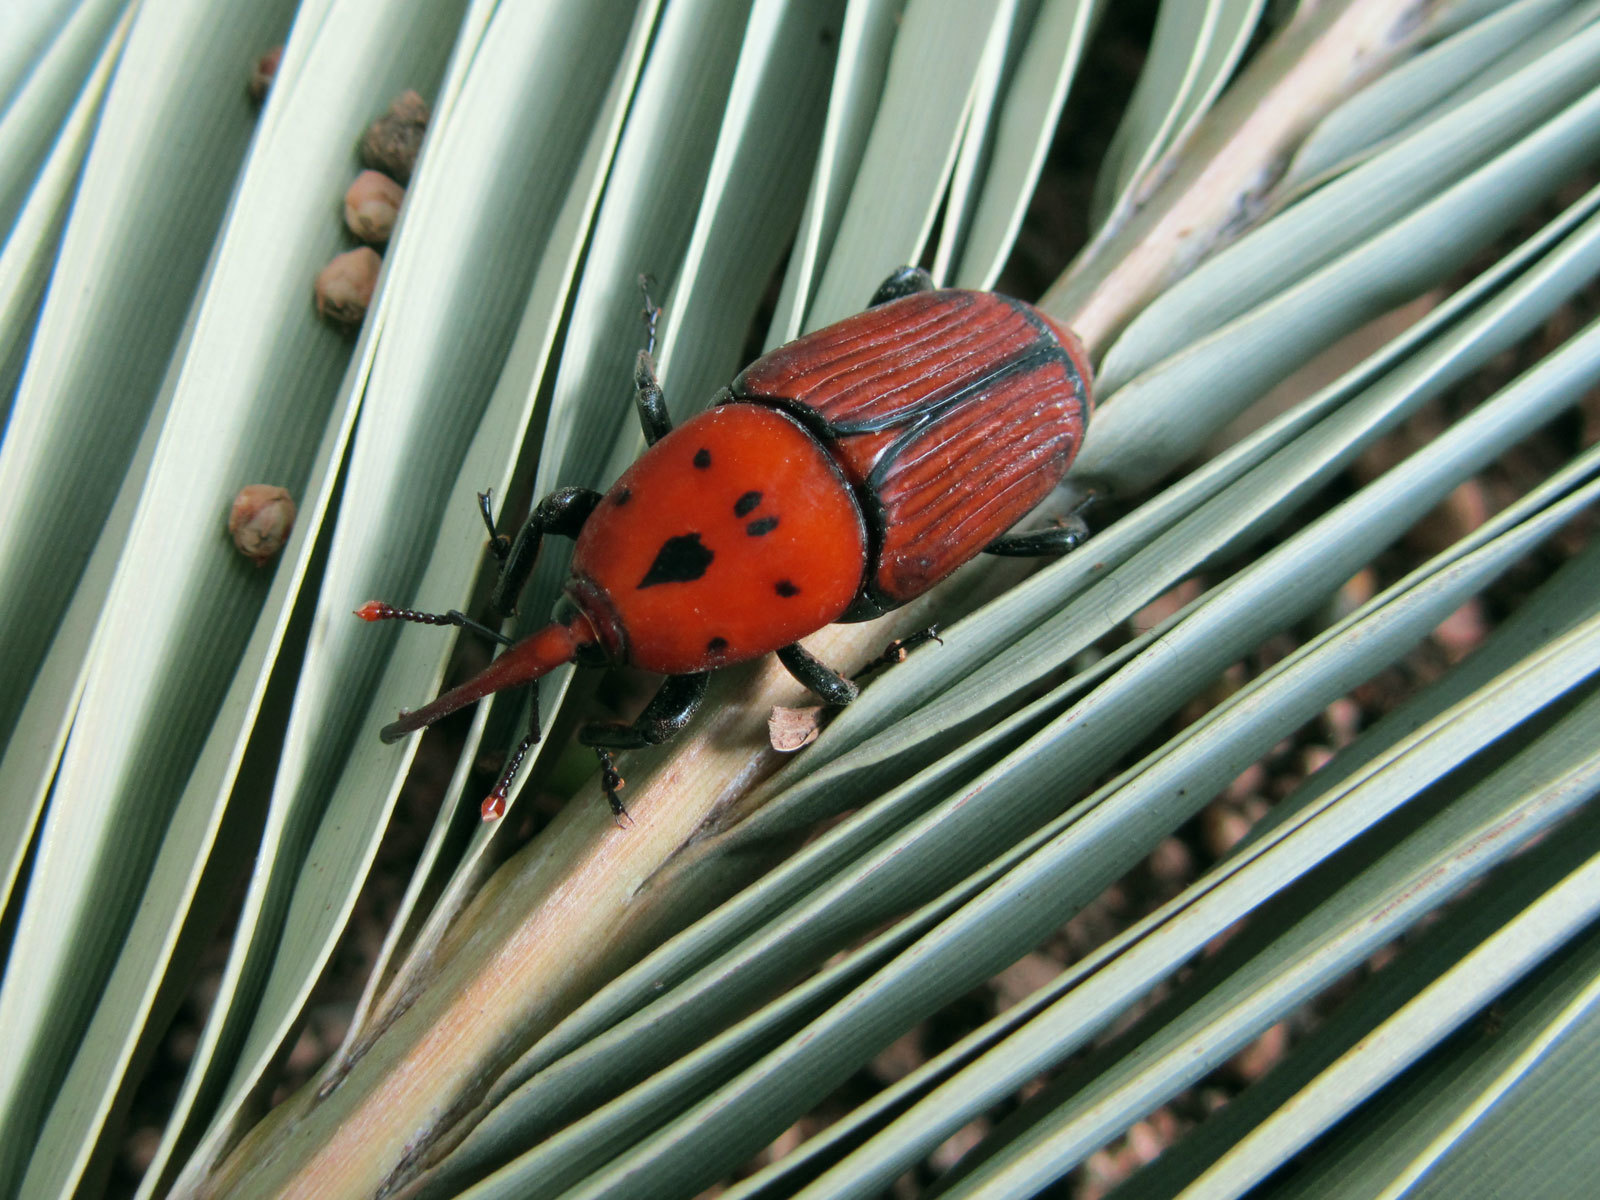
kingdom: Animalia
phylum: Arthropoda
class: Insecta
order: Coleoptera
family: Dryophthoridae
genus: Rhynchophorus
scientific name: Rhynchophorus ferrugineus
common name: Red palm weevil
